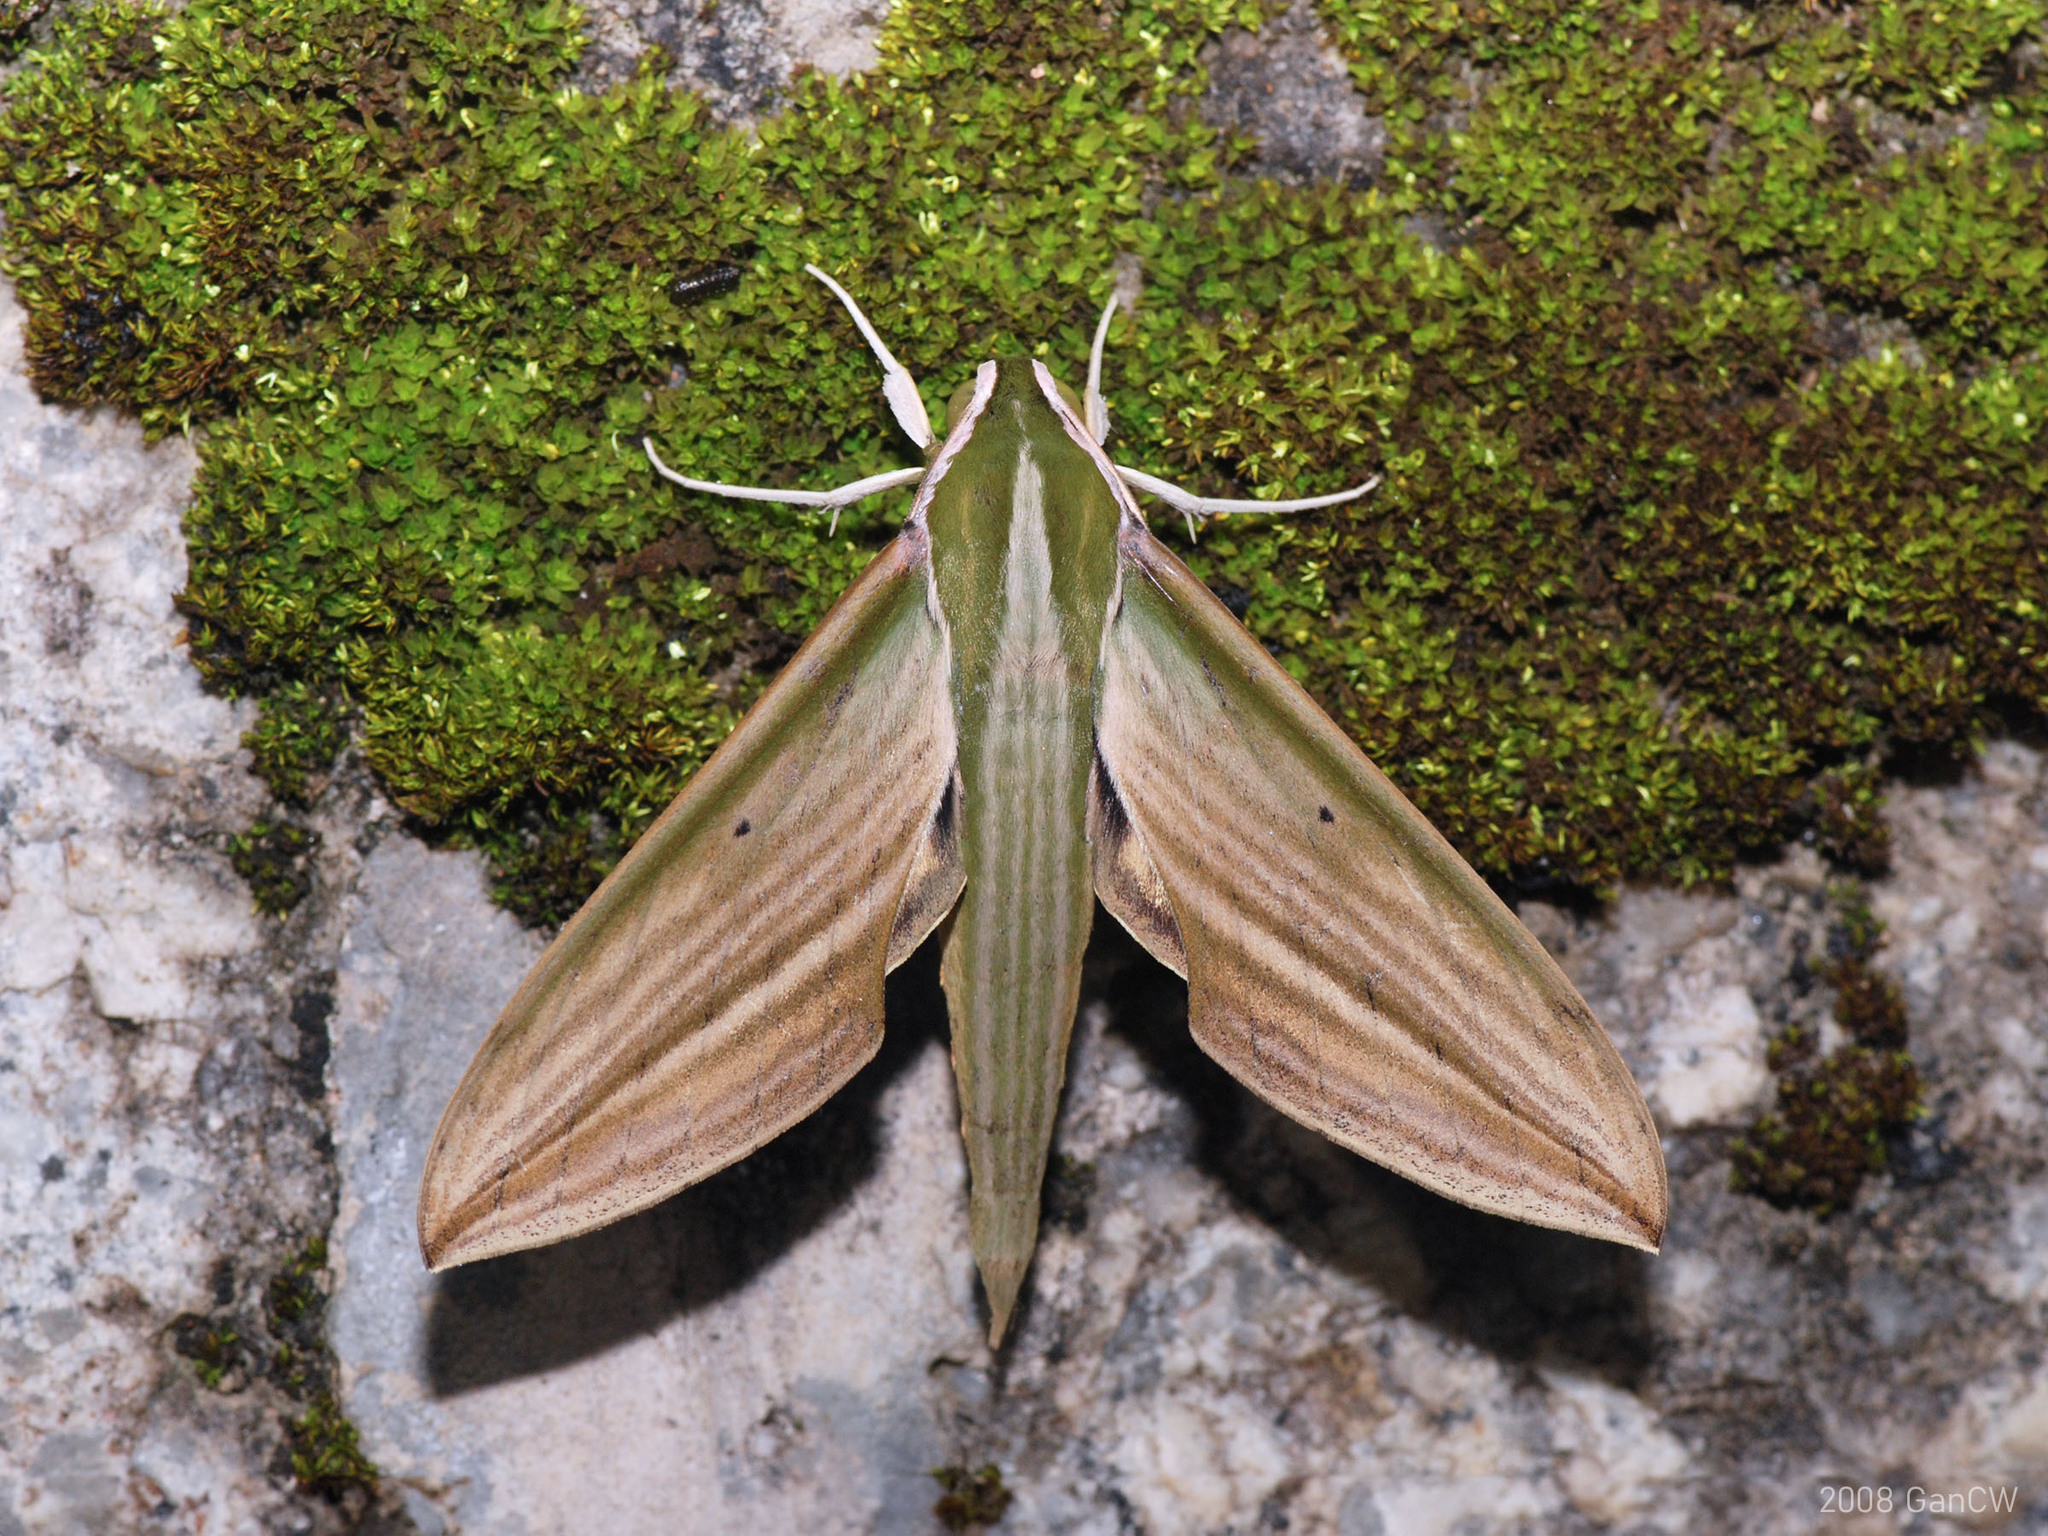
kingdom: Animalia
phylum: Arthropoda
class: Insecta
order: Lepidoptera
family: Sphingidae
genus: Cechetra
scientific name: Cechetra lineosa
